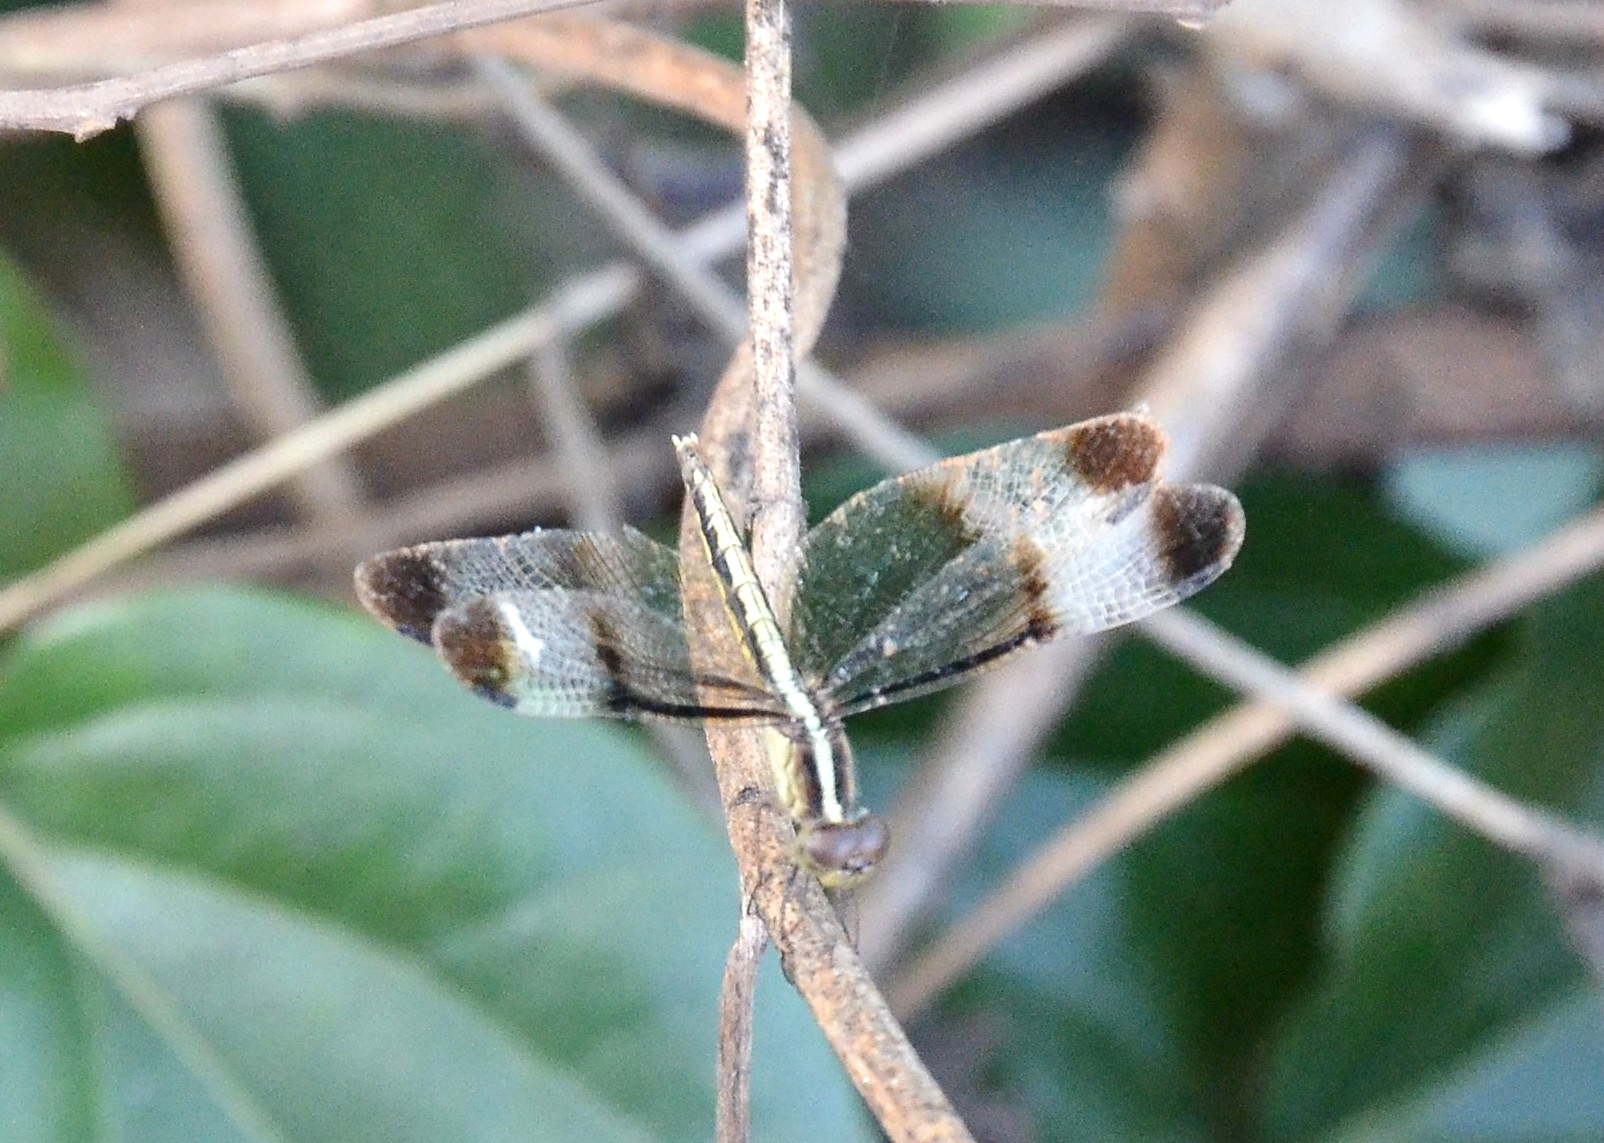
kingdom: Animalia
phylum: Arthropoda
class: Insecta
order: Odonata
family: Libellulidae
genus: Neurothemis
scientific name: Neurothemis tullia
